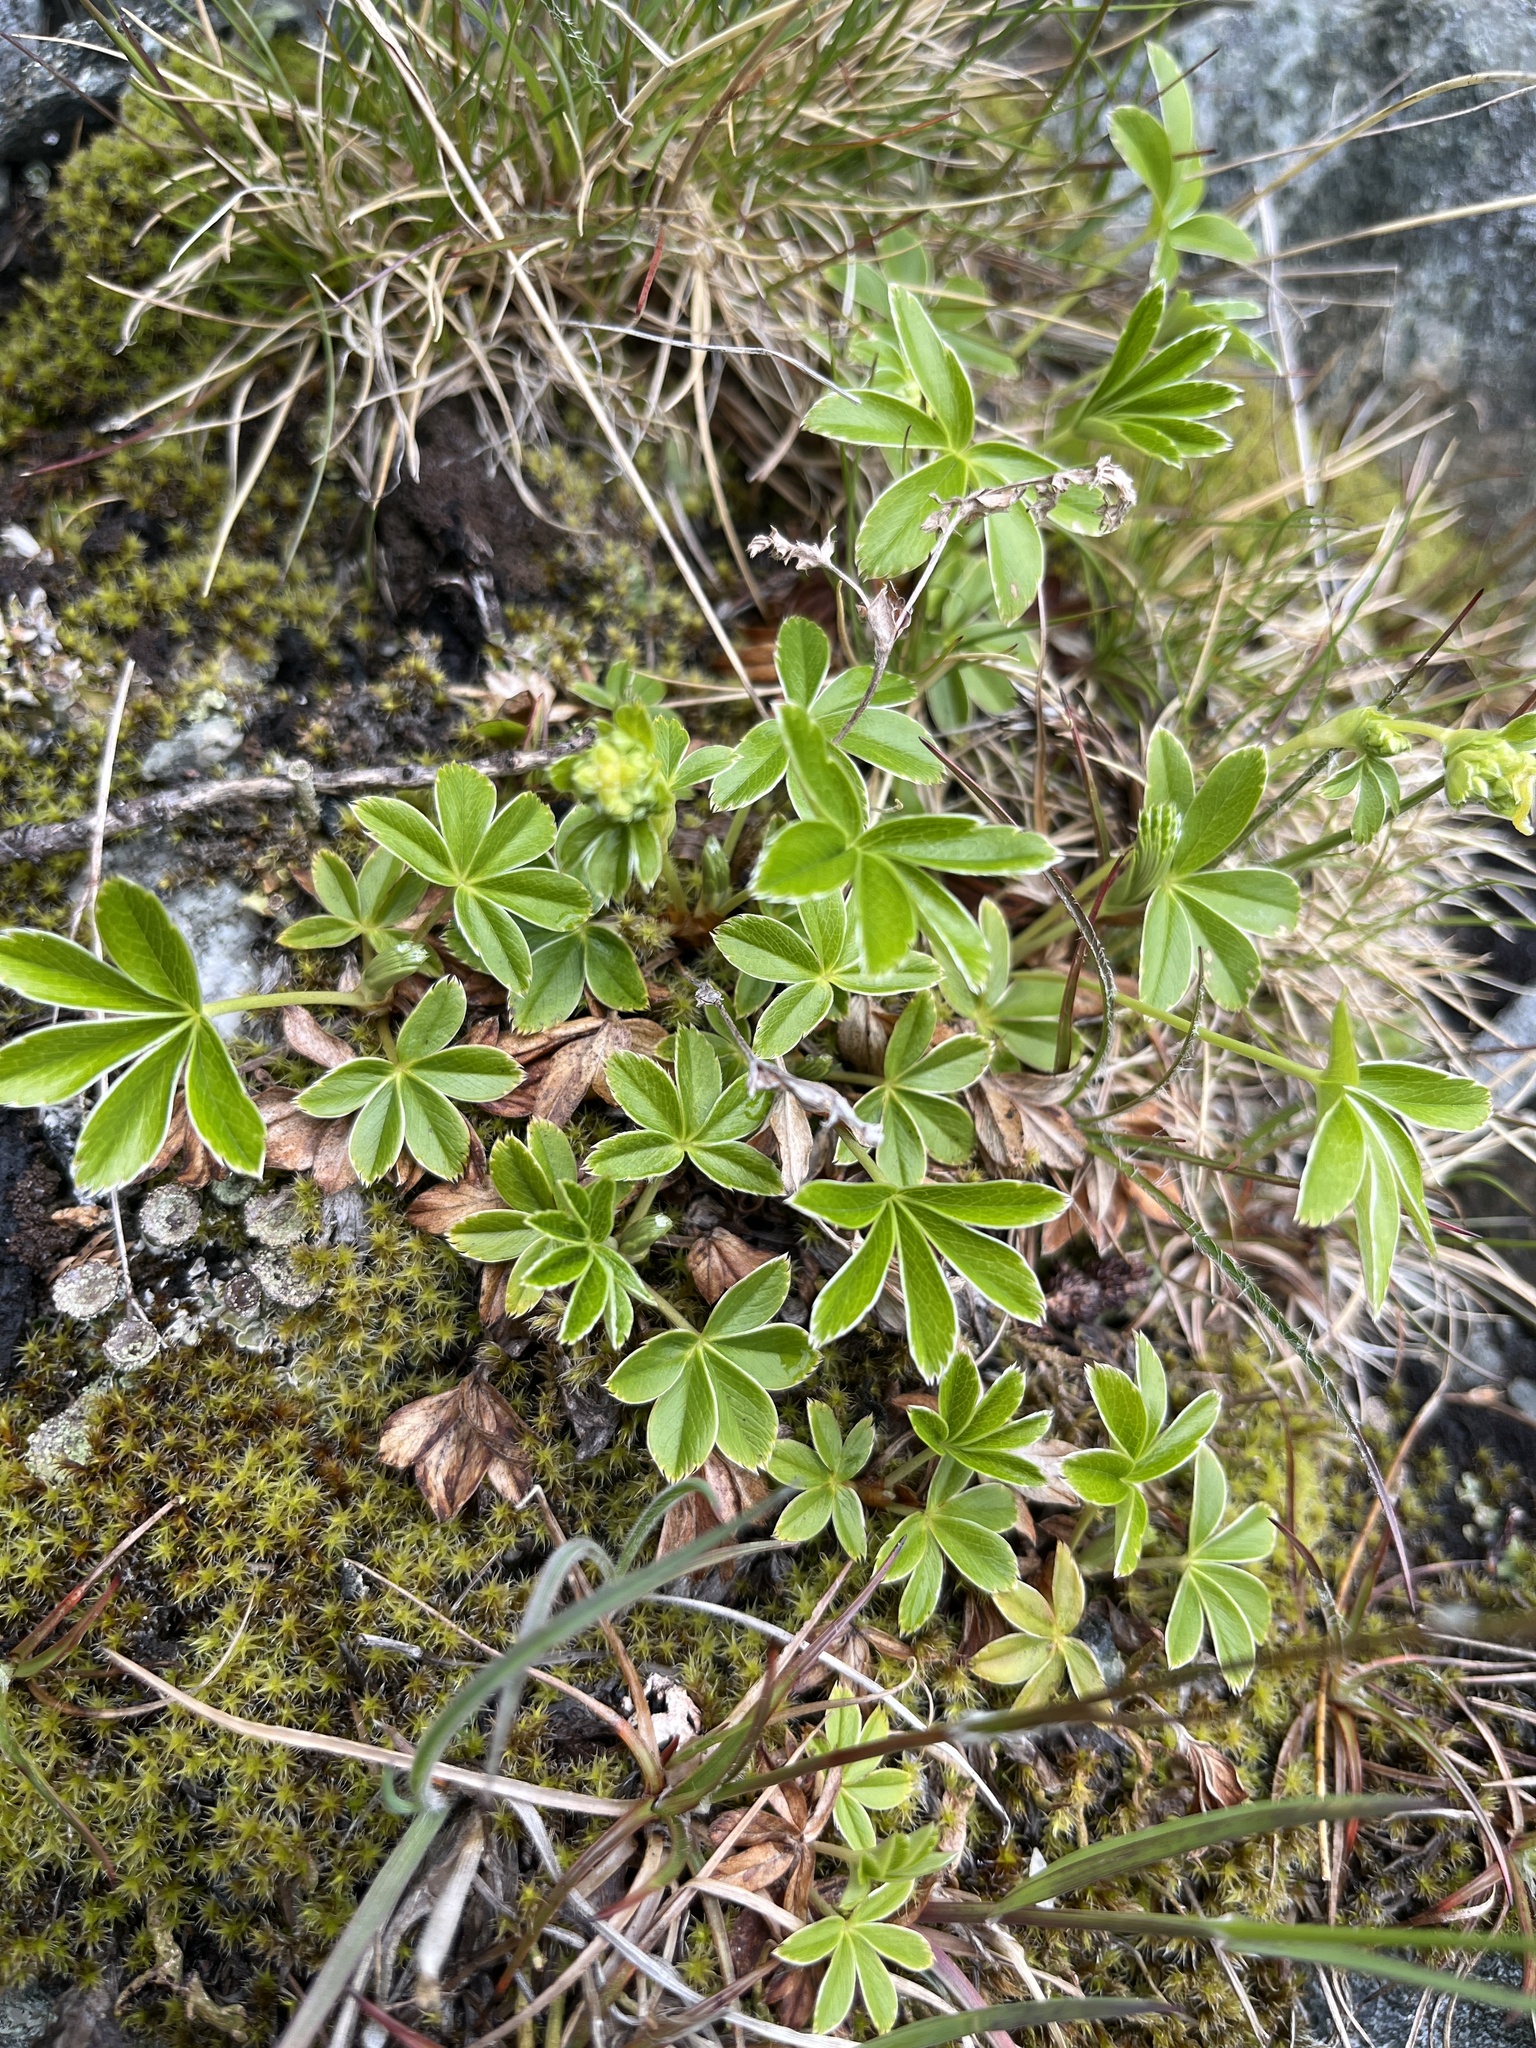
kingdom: Plantae
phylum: Tracheophyta
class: Magnoliopsida
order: Rosales
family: Rosaceae
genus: Alchemilla
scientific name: Alchemilla alpina
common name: Alpine lady's-mantle
